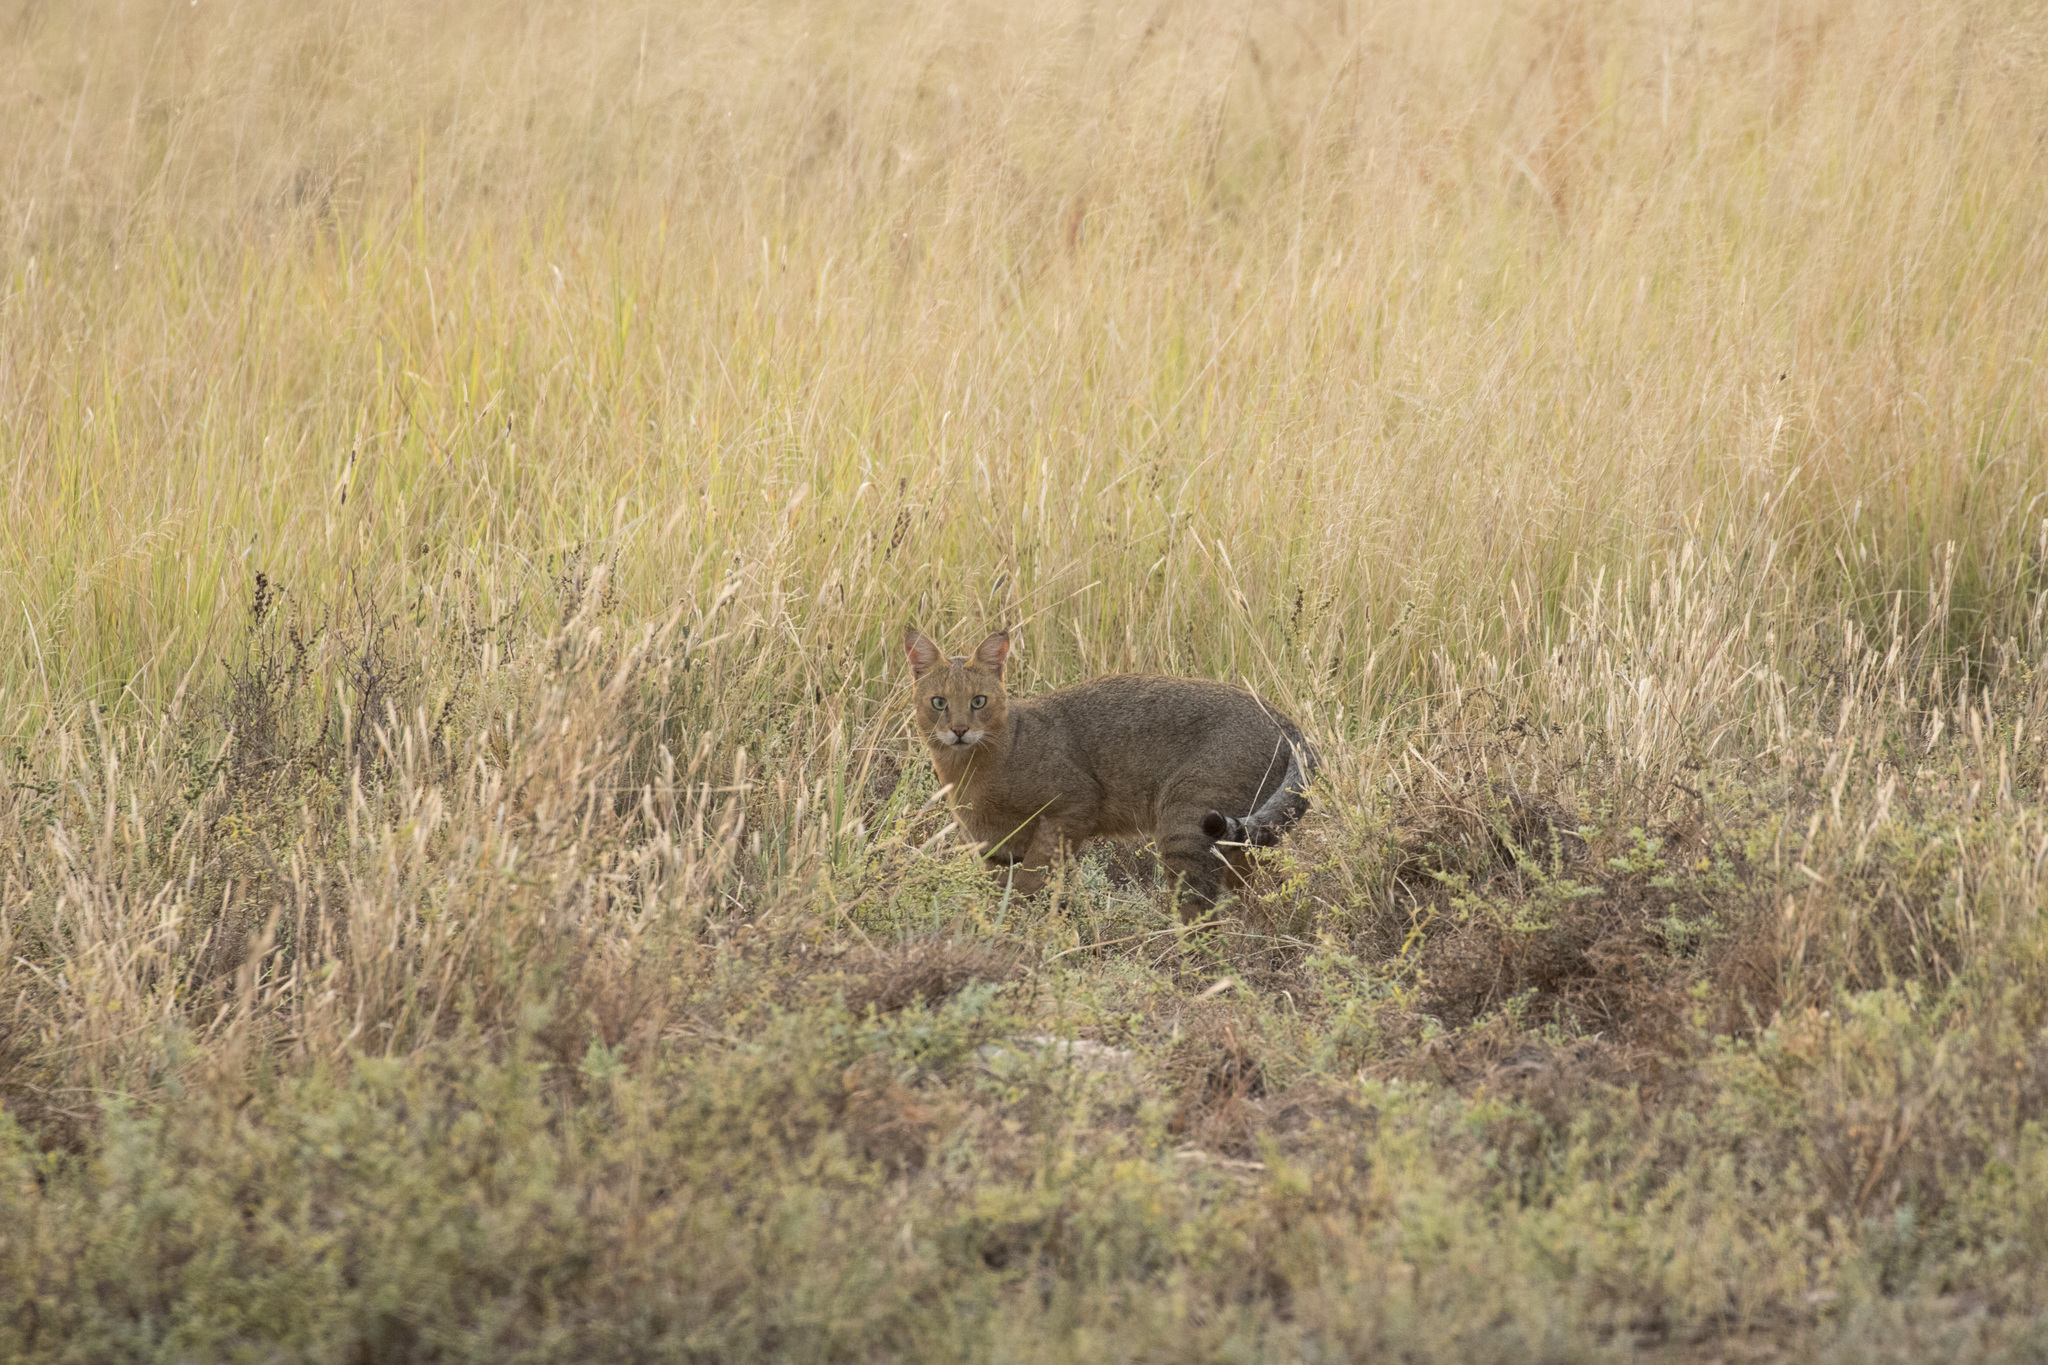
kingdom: Animalia
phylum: Chordata
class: Mammalia
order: Carnivora
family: Felidae
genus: Felis
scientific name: Felis chaus
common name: Jungle cat
